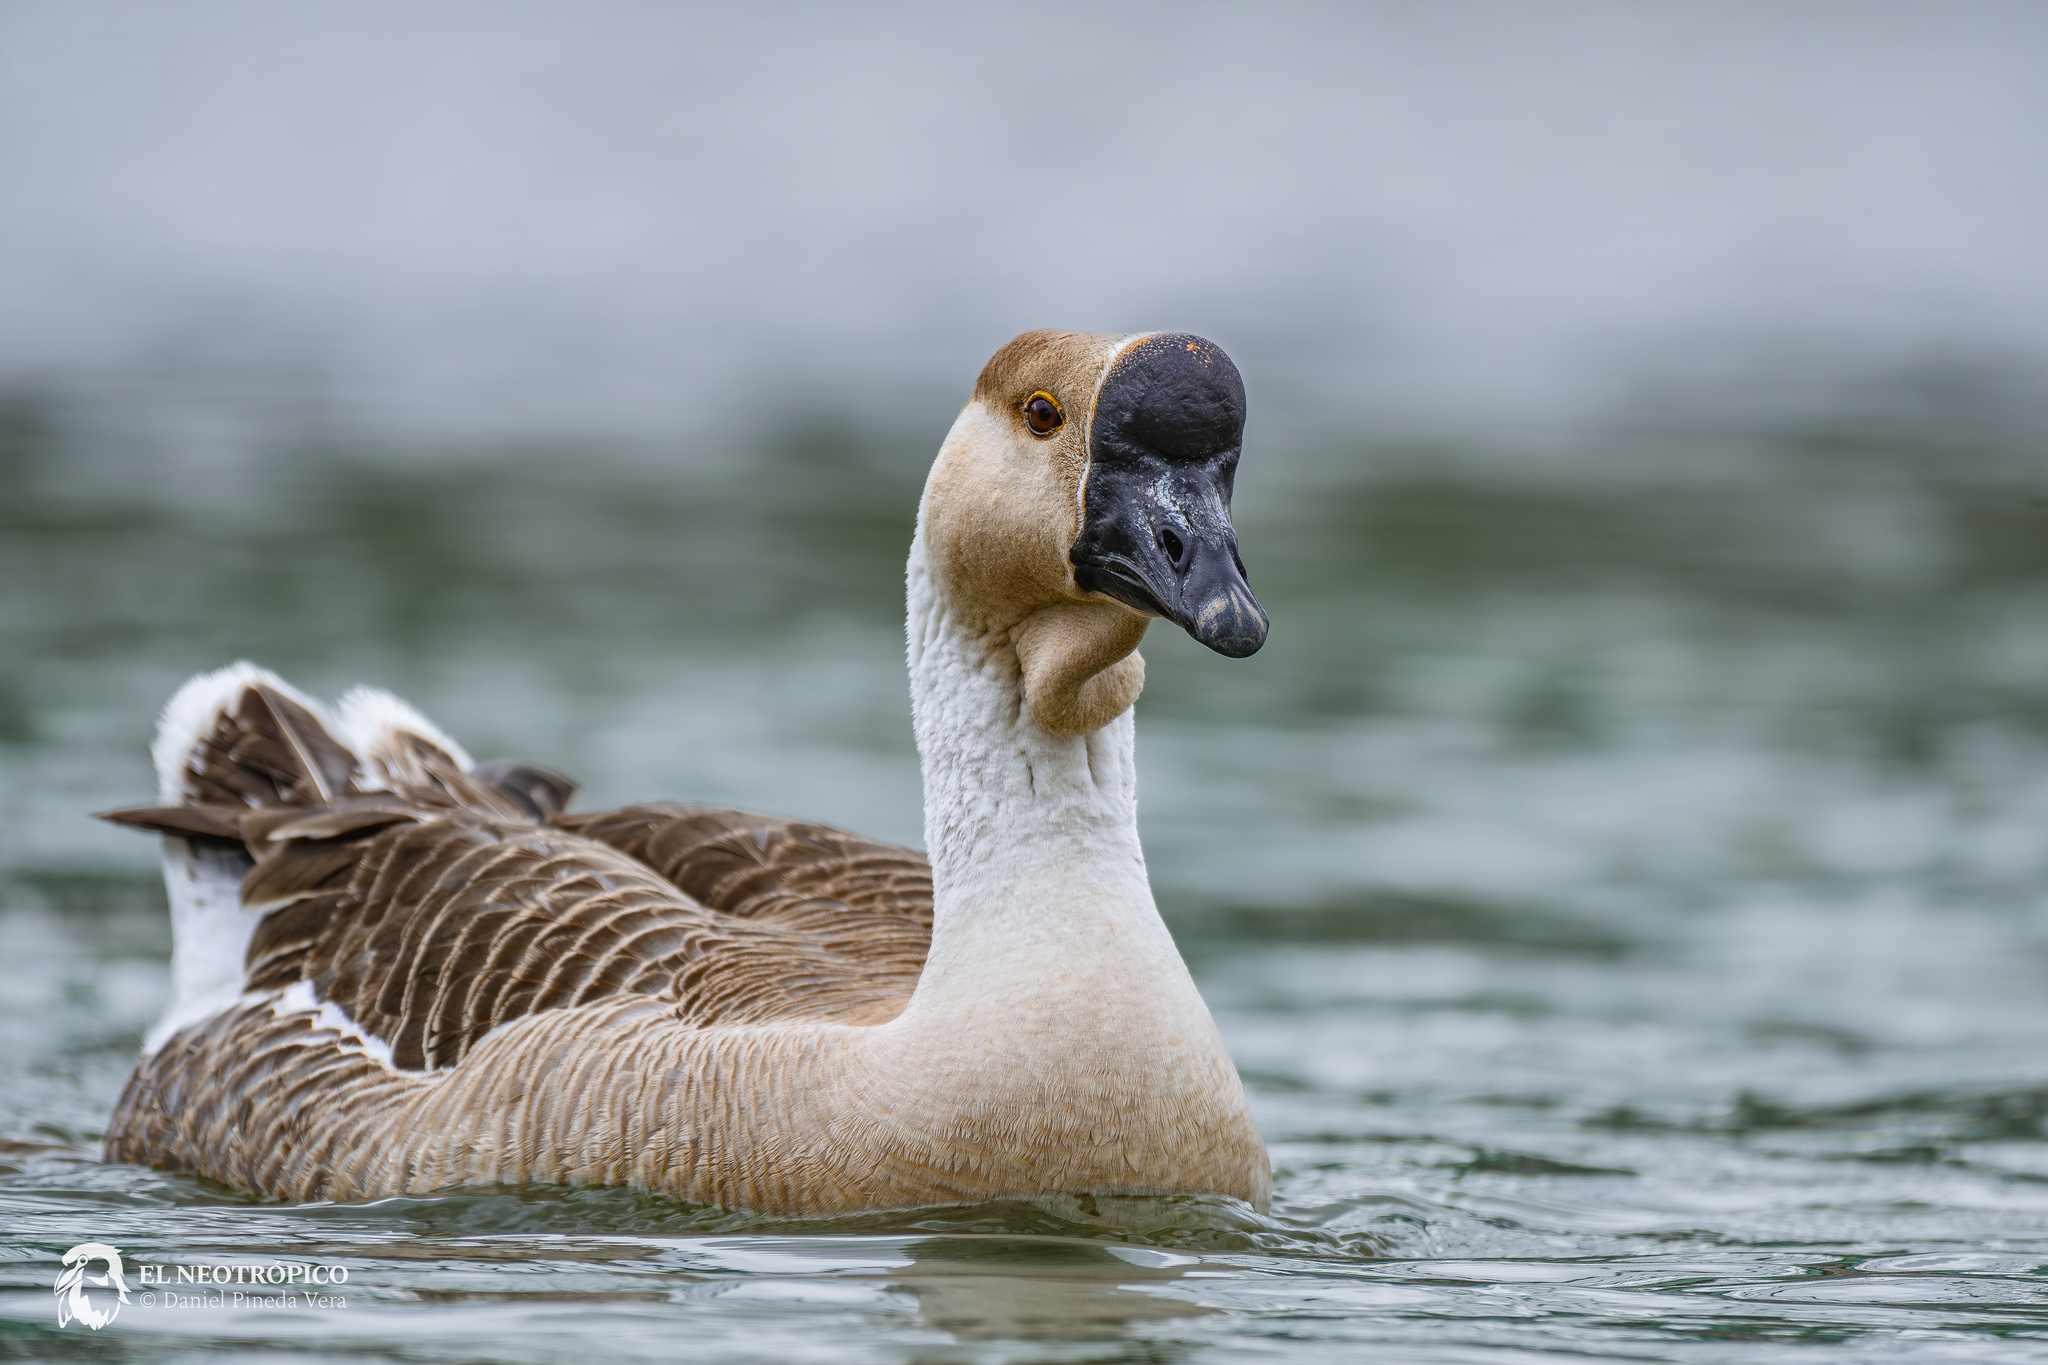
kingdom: Animalia
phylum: Chordata
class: Aves
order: Anseriformes
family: Anatidae
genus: Anser
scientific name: Anser cygnoides
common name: Swan goose
